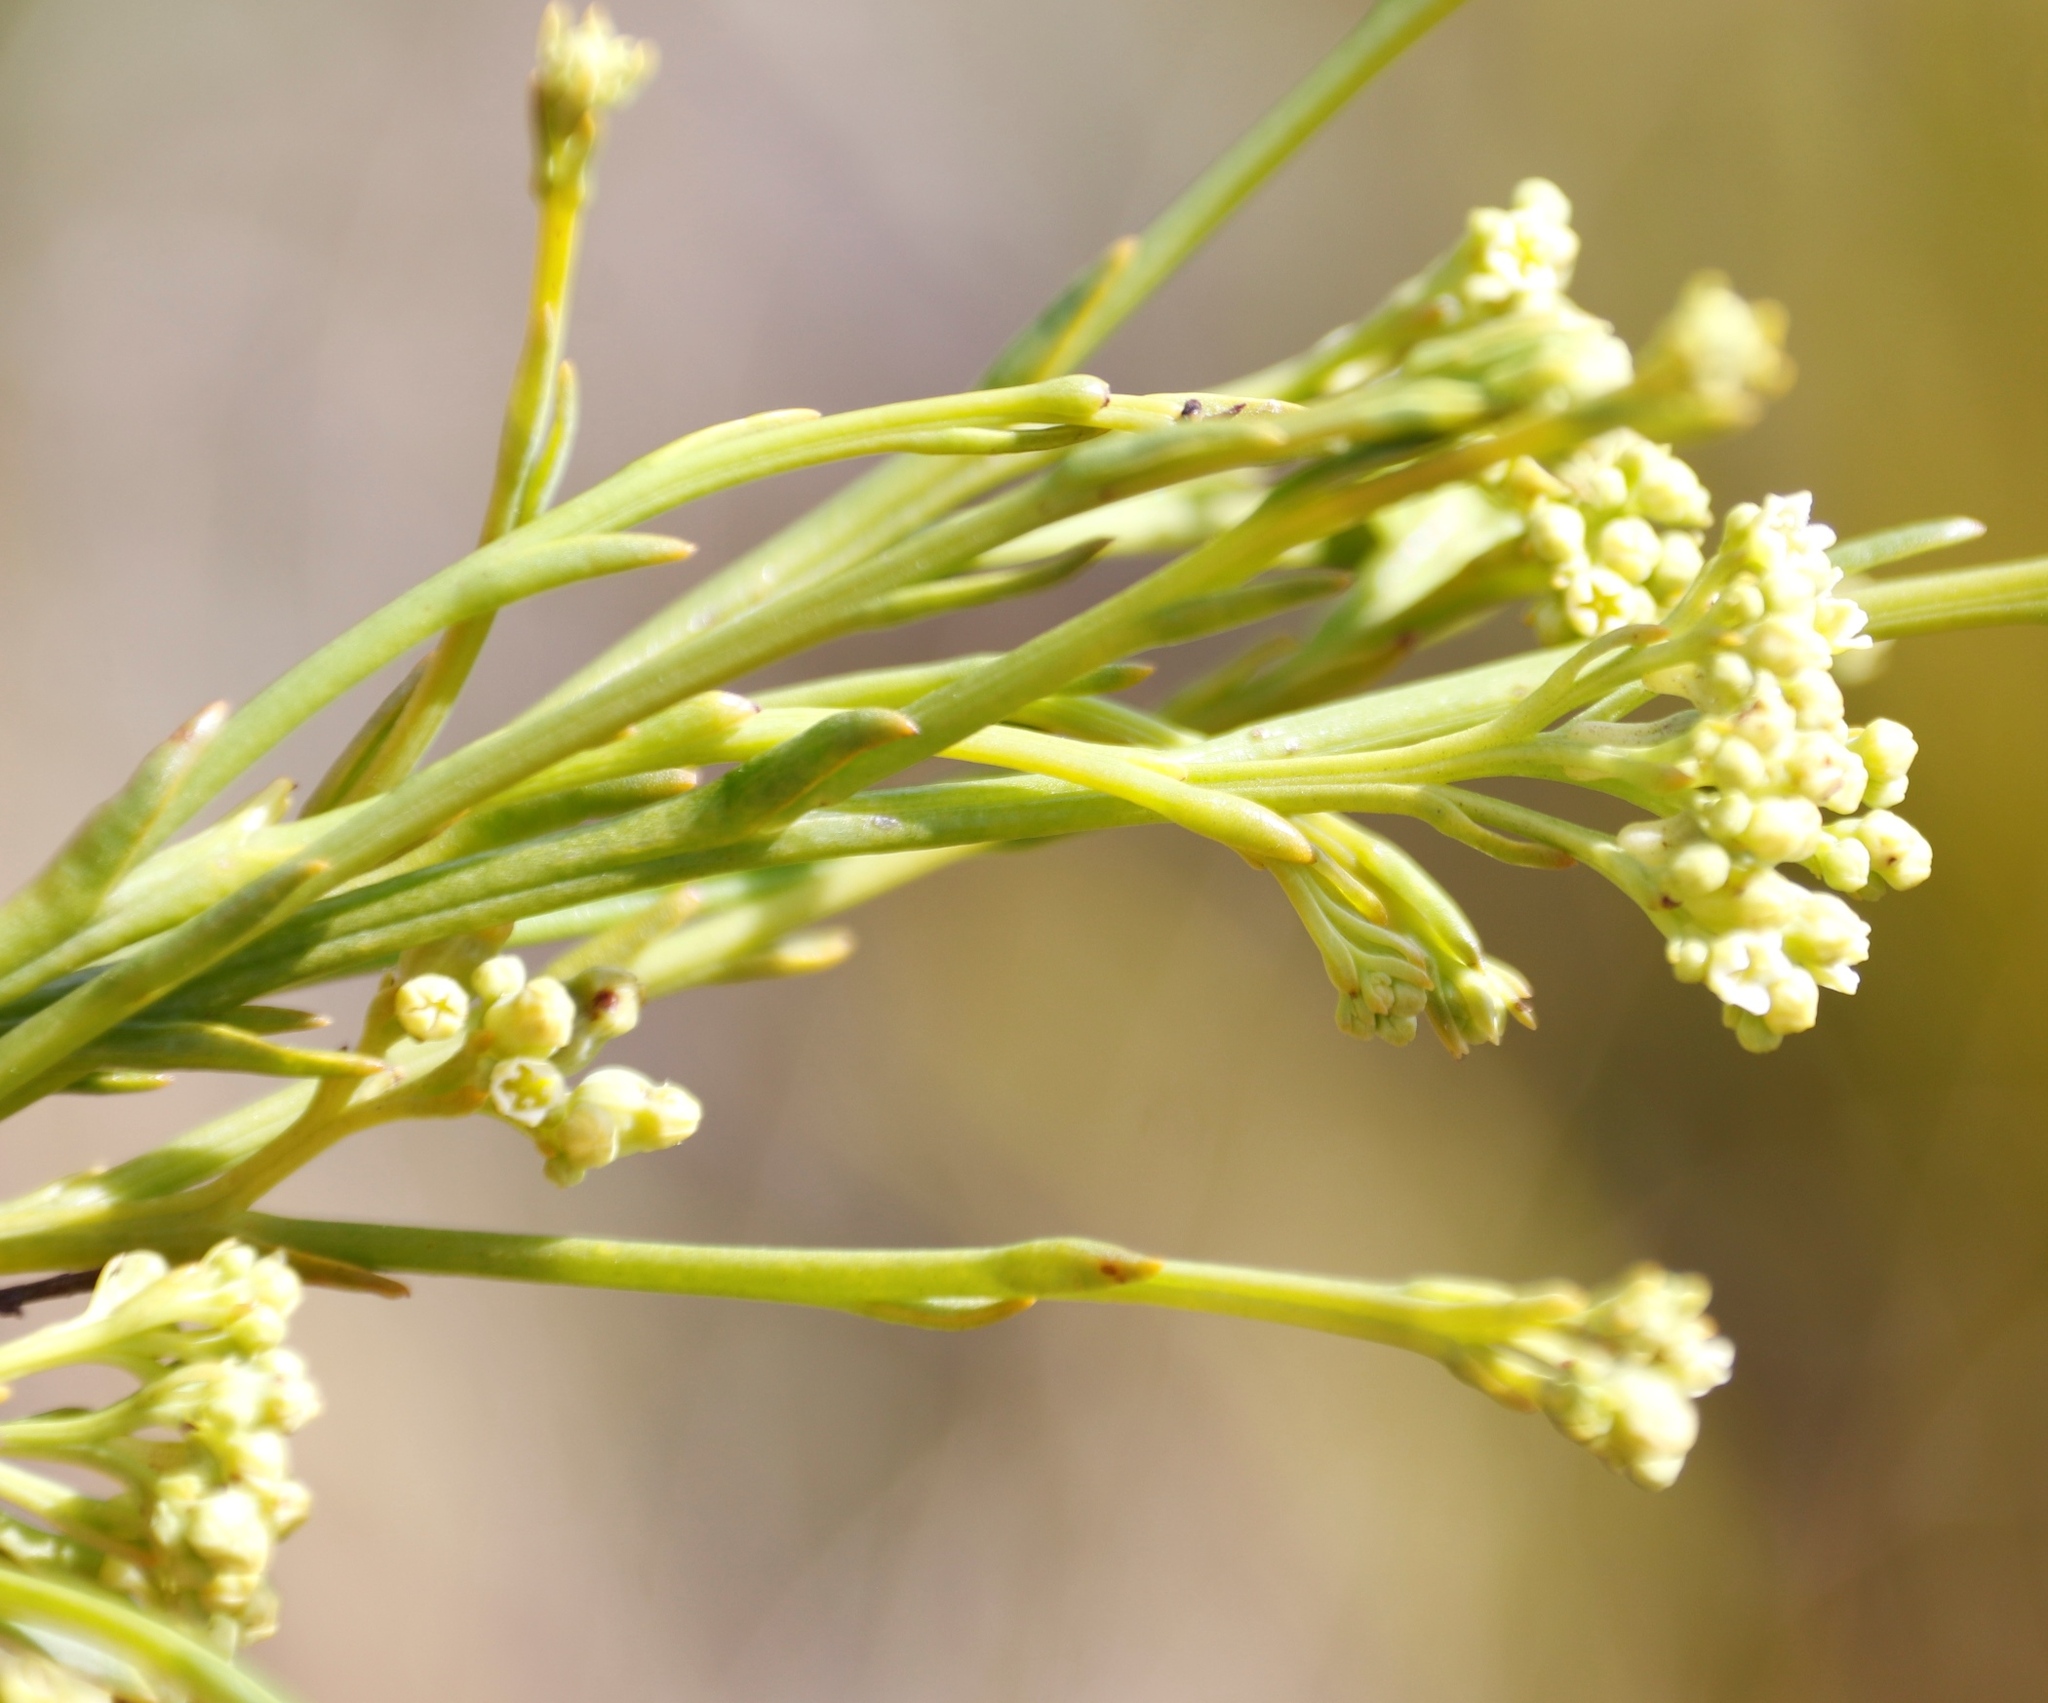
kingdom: Plantae
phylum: Tracheophyta
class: Magnoliopsida
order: Santalales
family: Thesiaceae
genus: Thesium
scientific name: Thesium strictum
